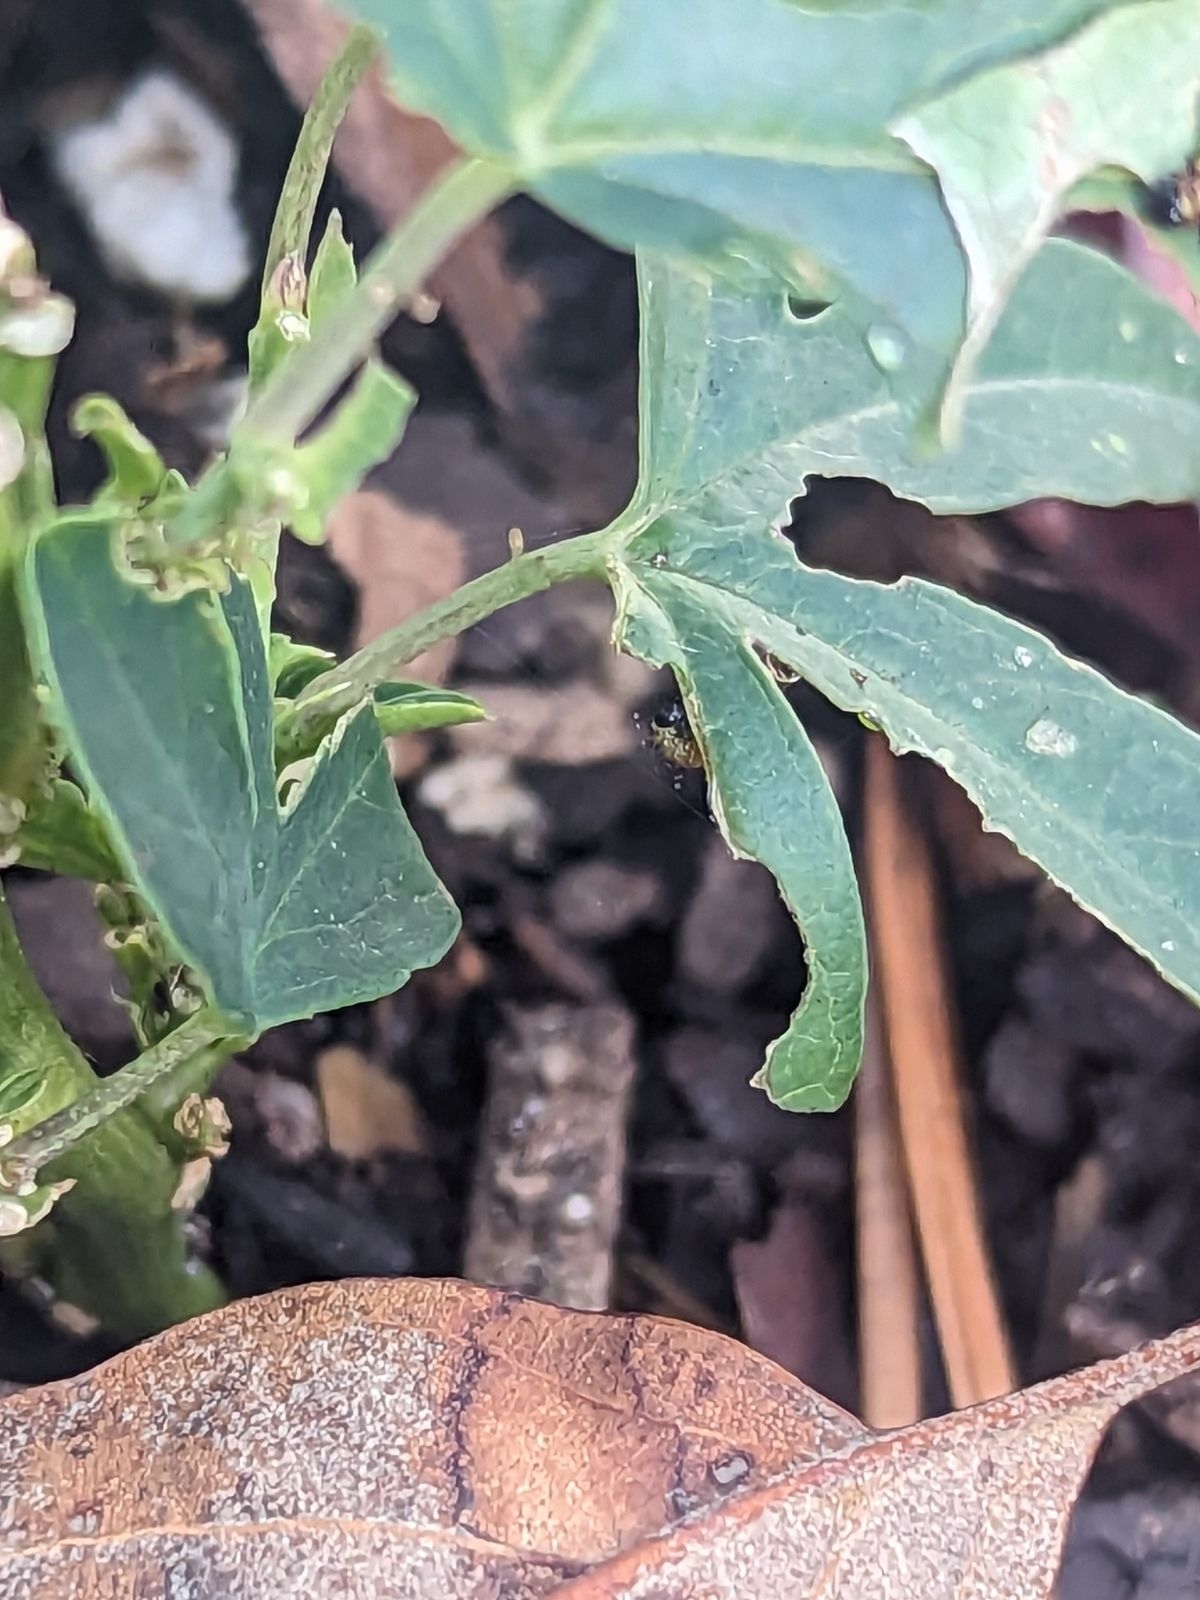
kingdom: Animalia
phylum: Arthropoda
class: Insecta
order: Lepidoptera
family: Nymphalidae
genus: Dione
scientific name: Dione vanillae
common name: Gulf fritillary
